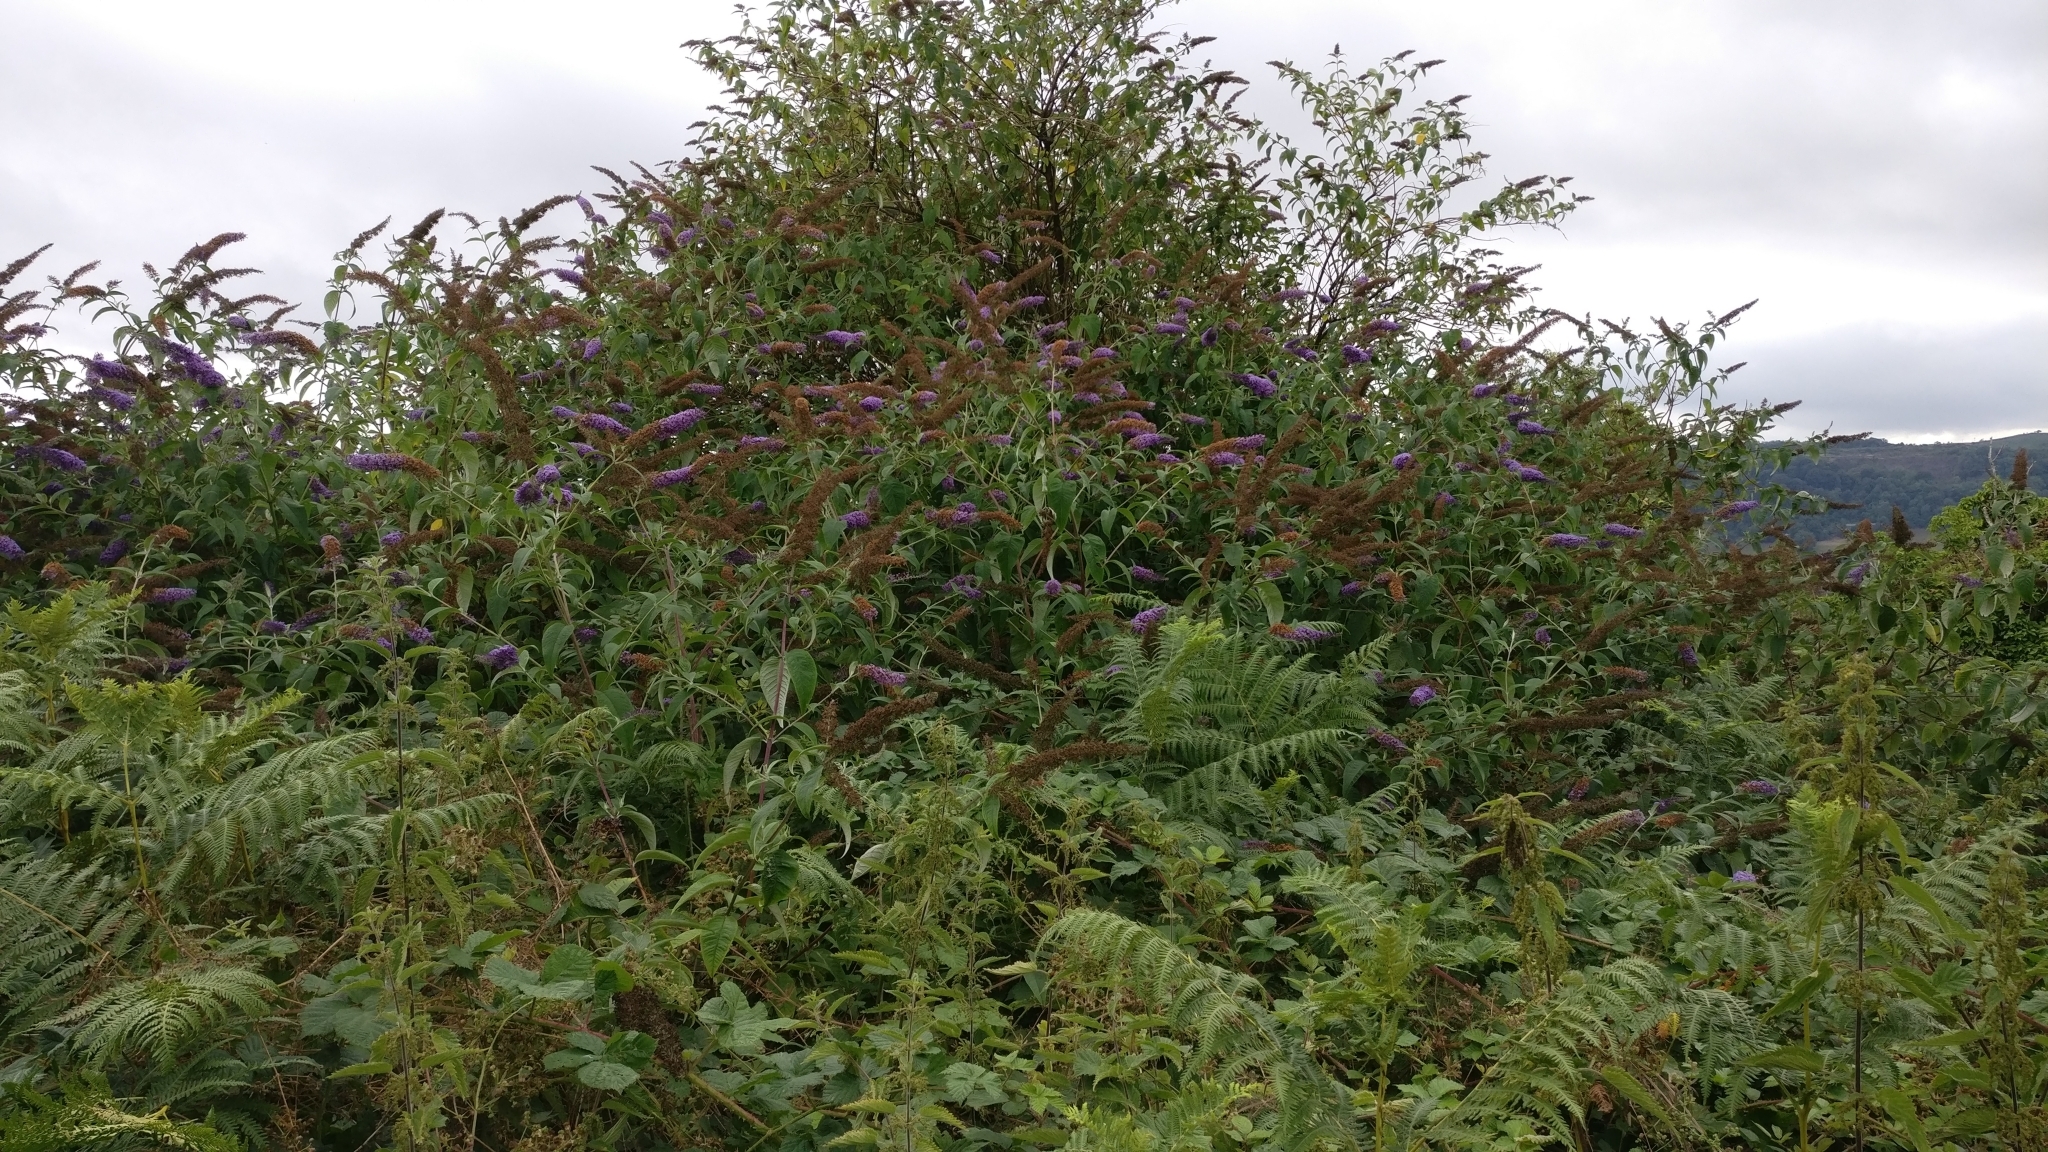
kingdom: Plantae
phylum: Tracheophyta
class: Magnoliopsida
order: Lamiales
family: Scrophulariaceae
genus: Buddleja
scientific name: Buddleja davidii
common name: Butterfly-bush
